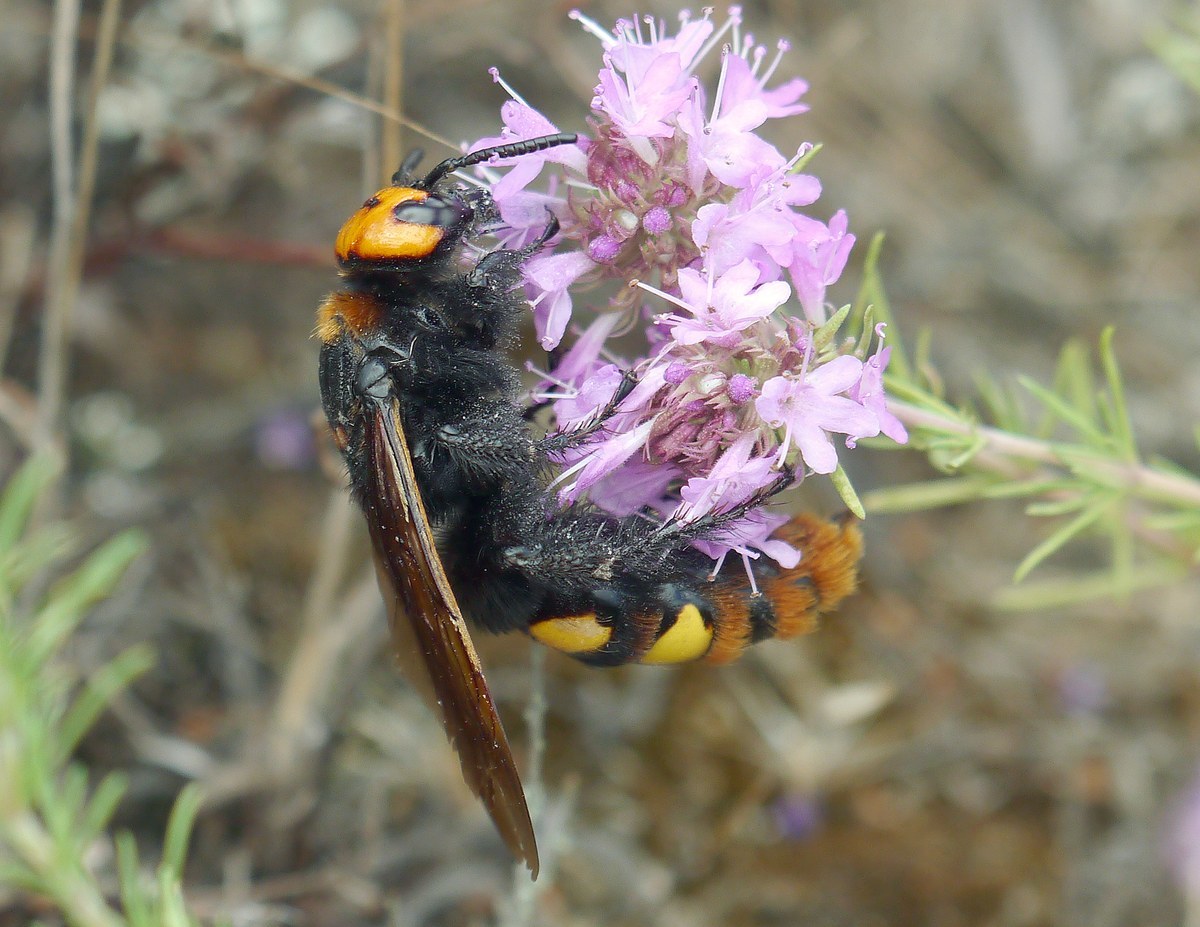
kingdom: Animalia
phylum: Arthropoda
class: Insecta
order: Hymenoptera
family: Scoliidae
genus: Megascolia
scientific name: Megascolia maculata
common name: Mammoth wasp
